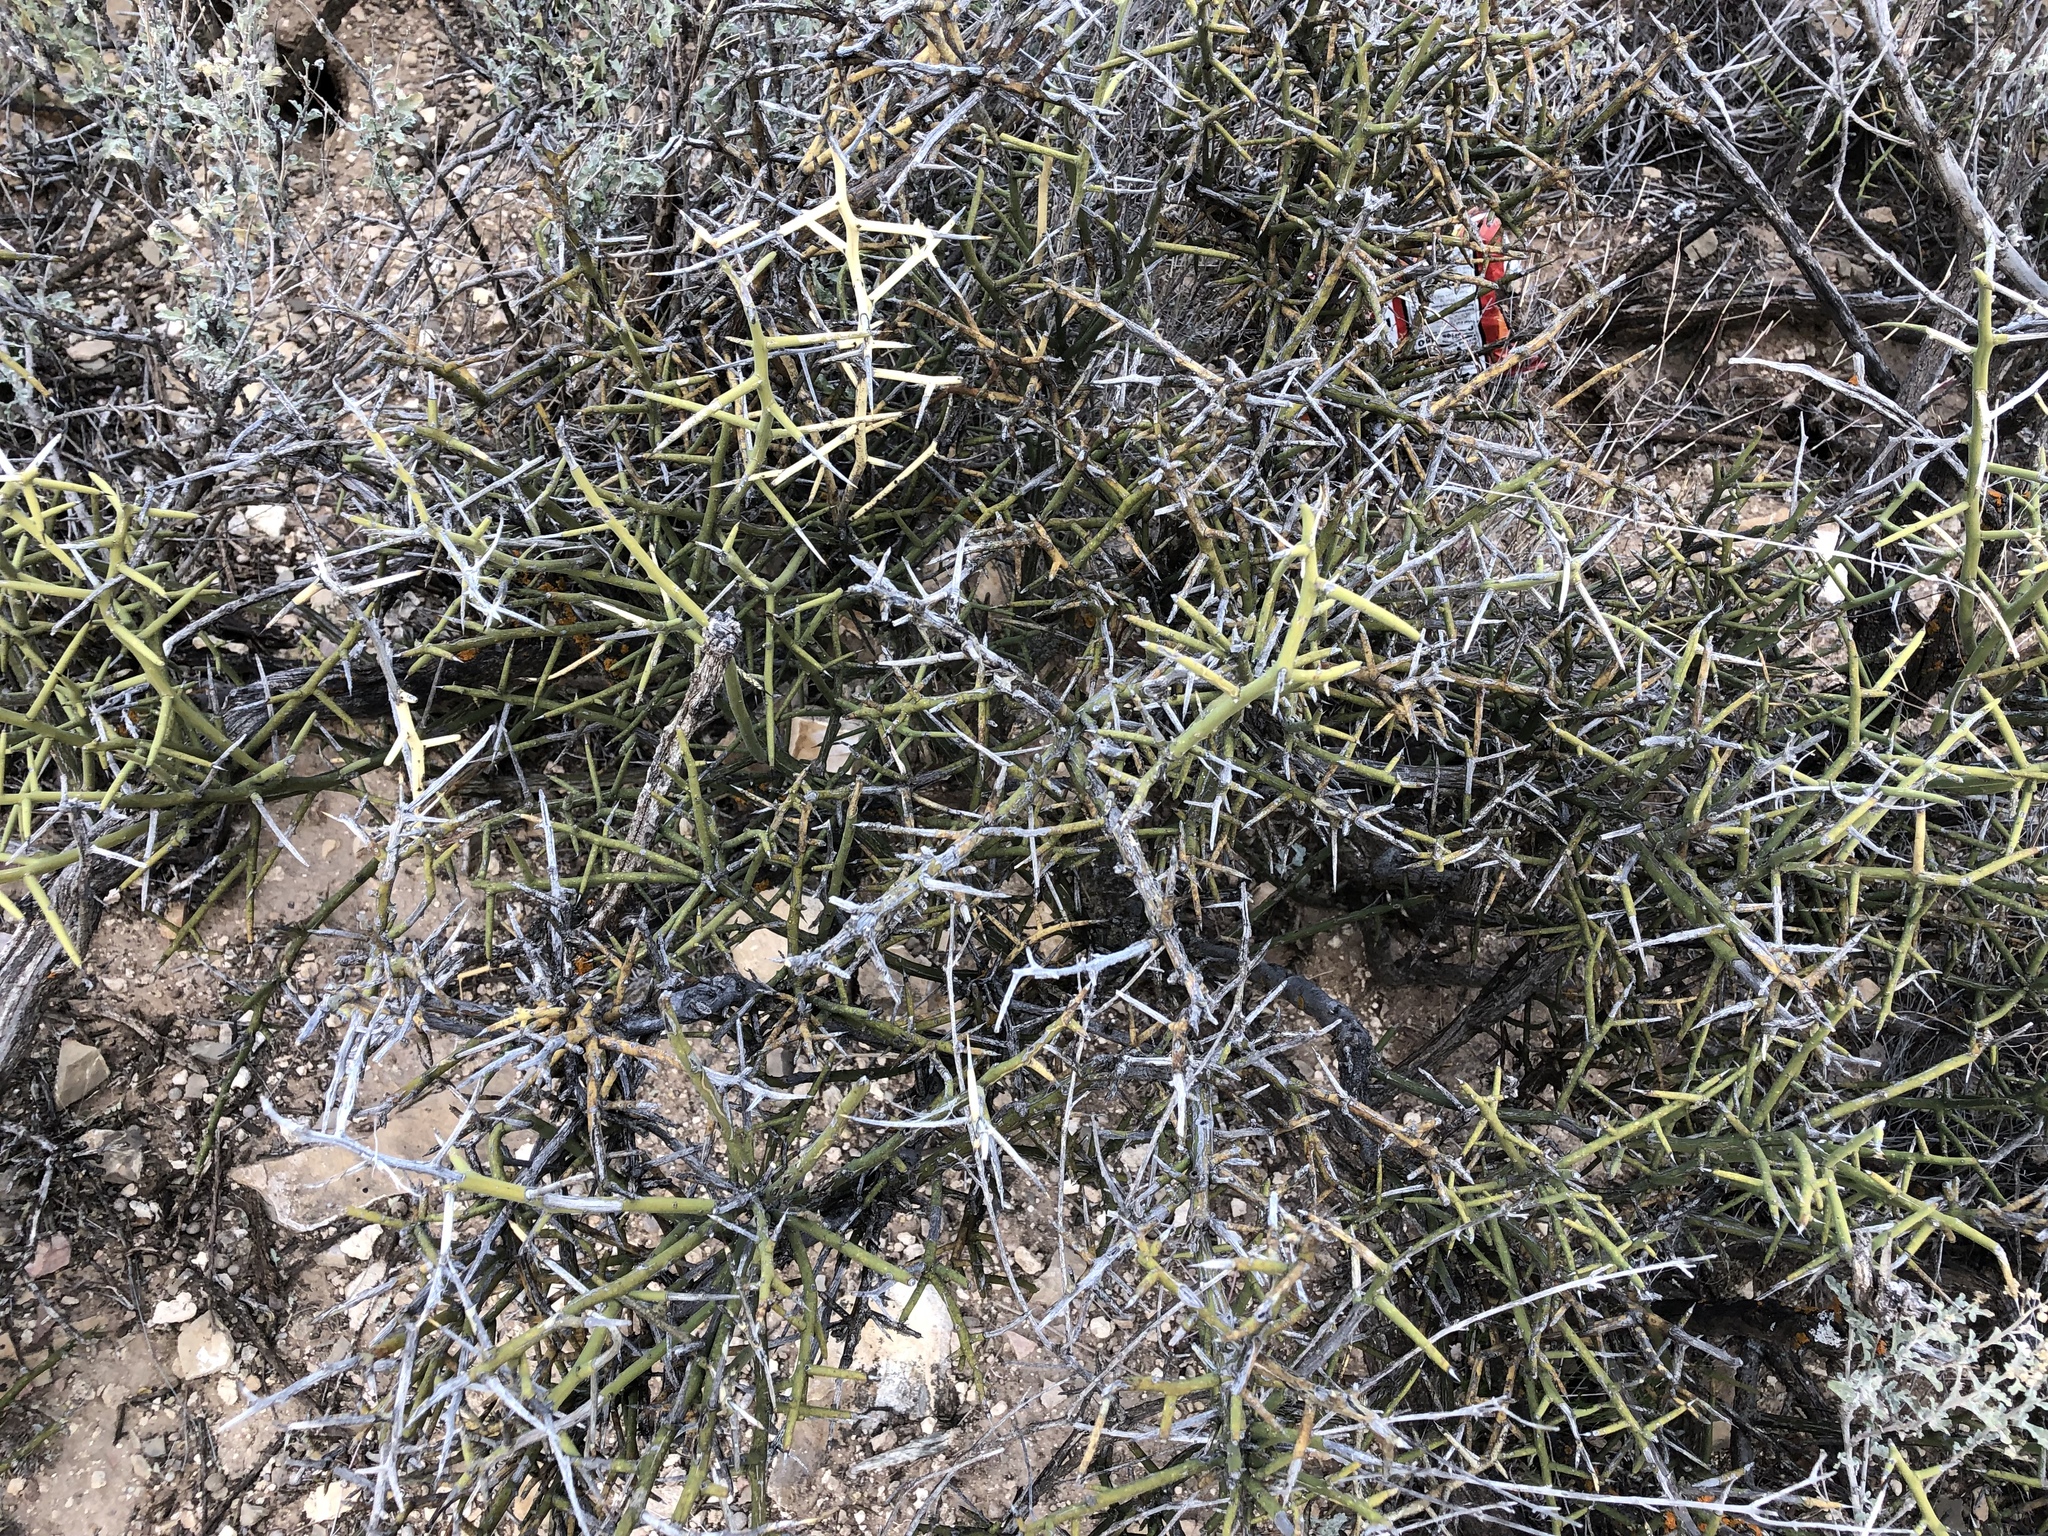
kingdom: Plantae
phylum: Tracheophyta
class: Magnoliopsida
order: Brassicales
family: Koeberliniaceae
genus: Koeberlinia
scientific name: Koeberlinia spinosa
